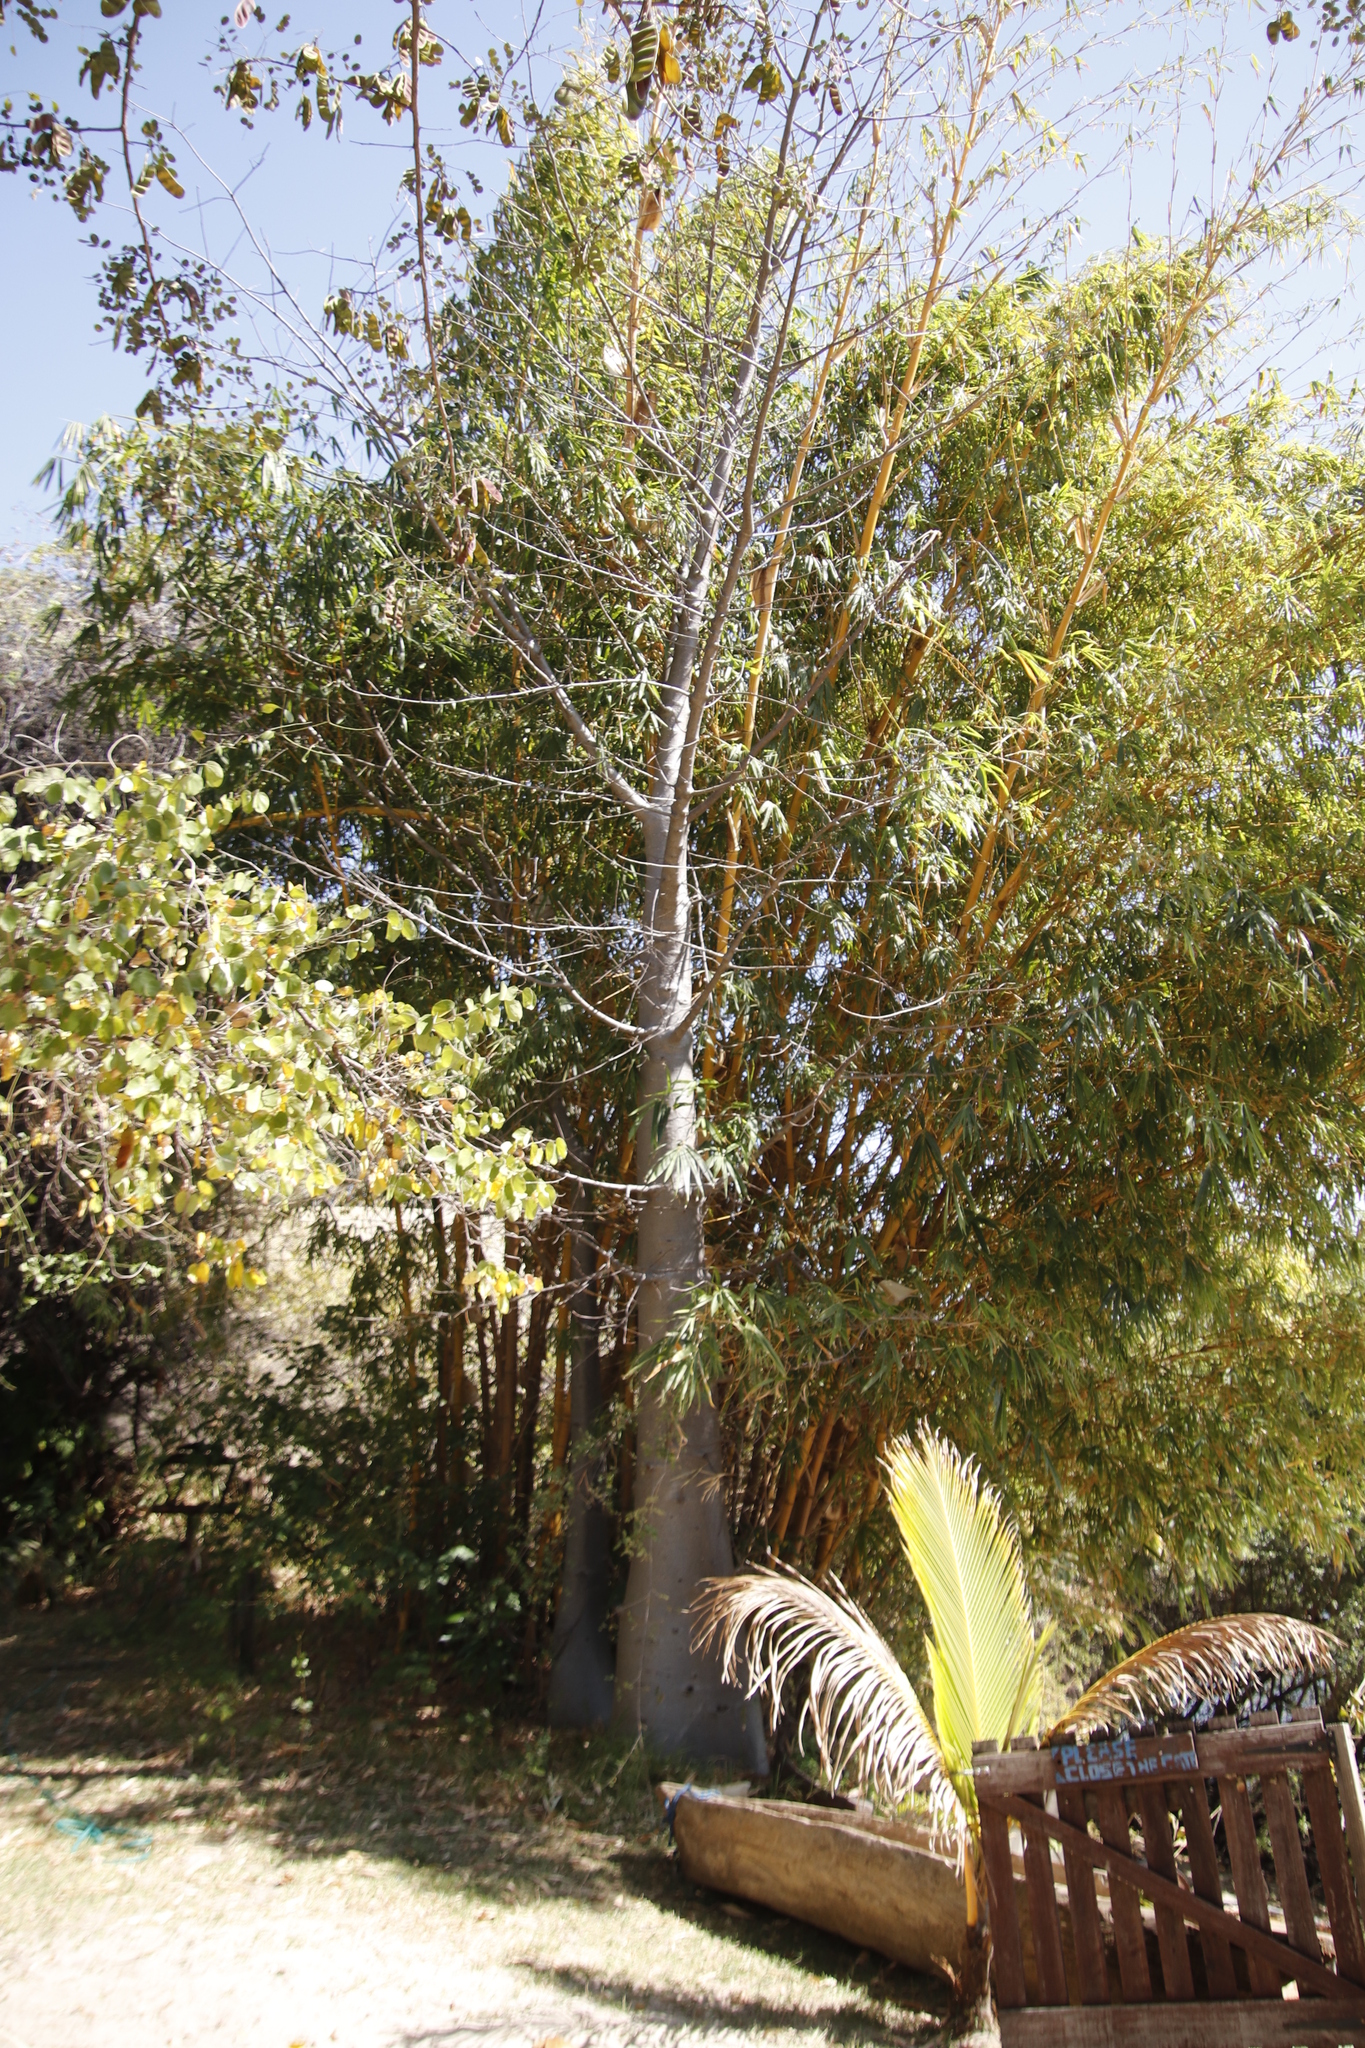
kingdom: Plantae
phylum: Tracheophyta
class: Magnoliopsida
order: Malvales
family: Malvaceae
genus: Adansonia
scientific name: Adansonia digitata
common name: Dead-rat-tree
